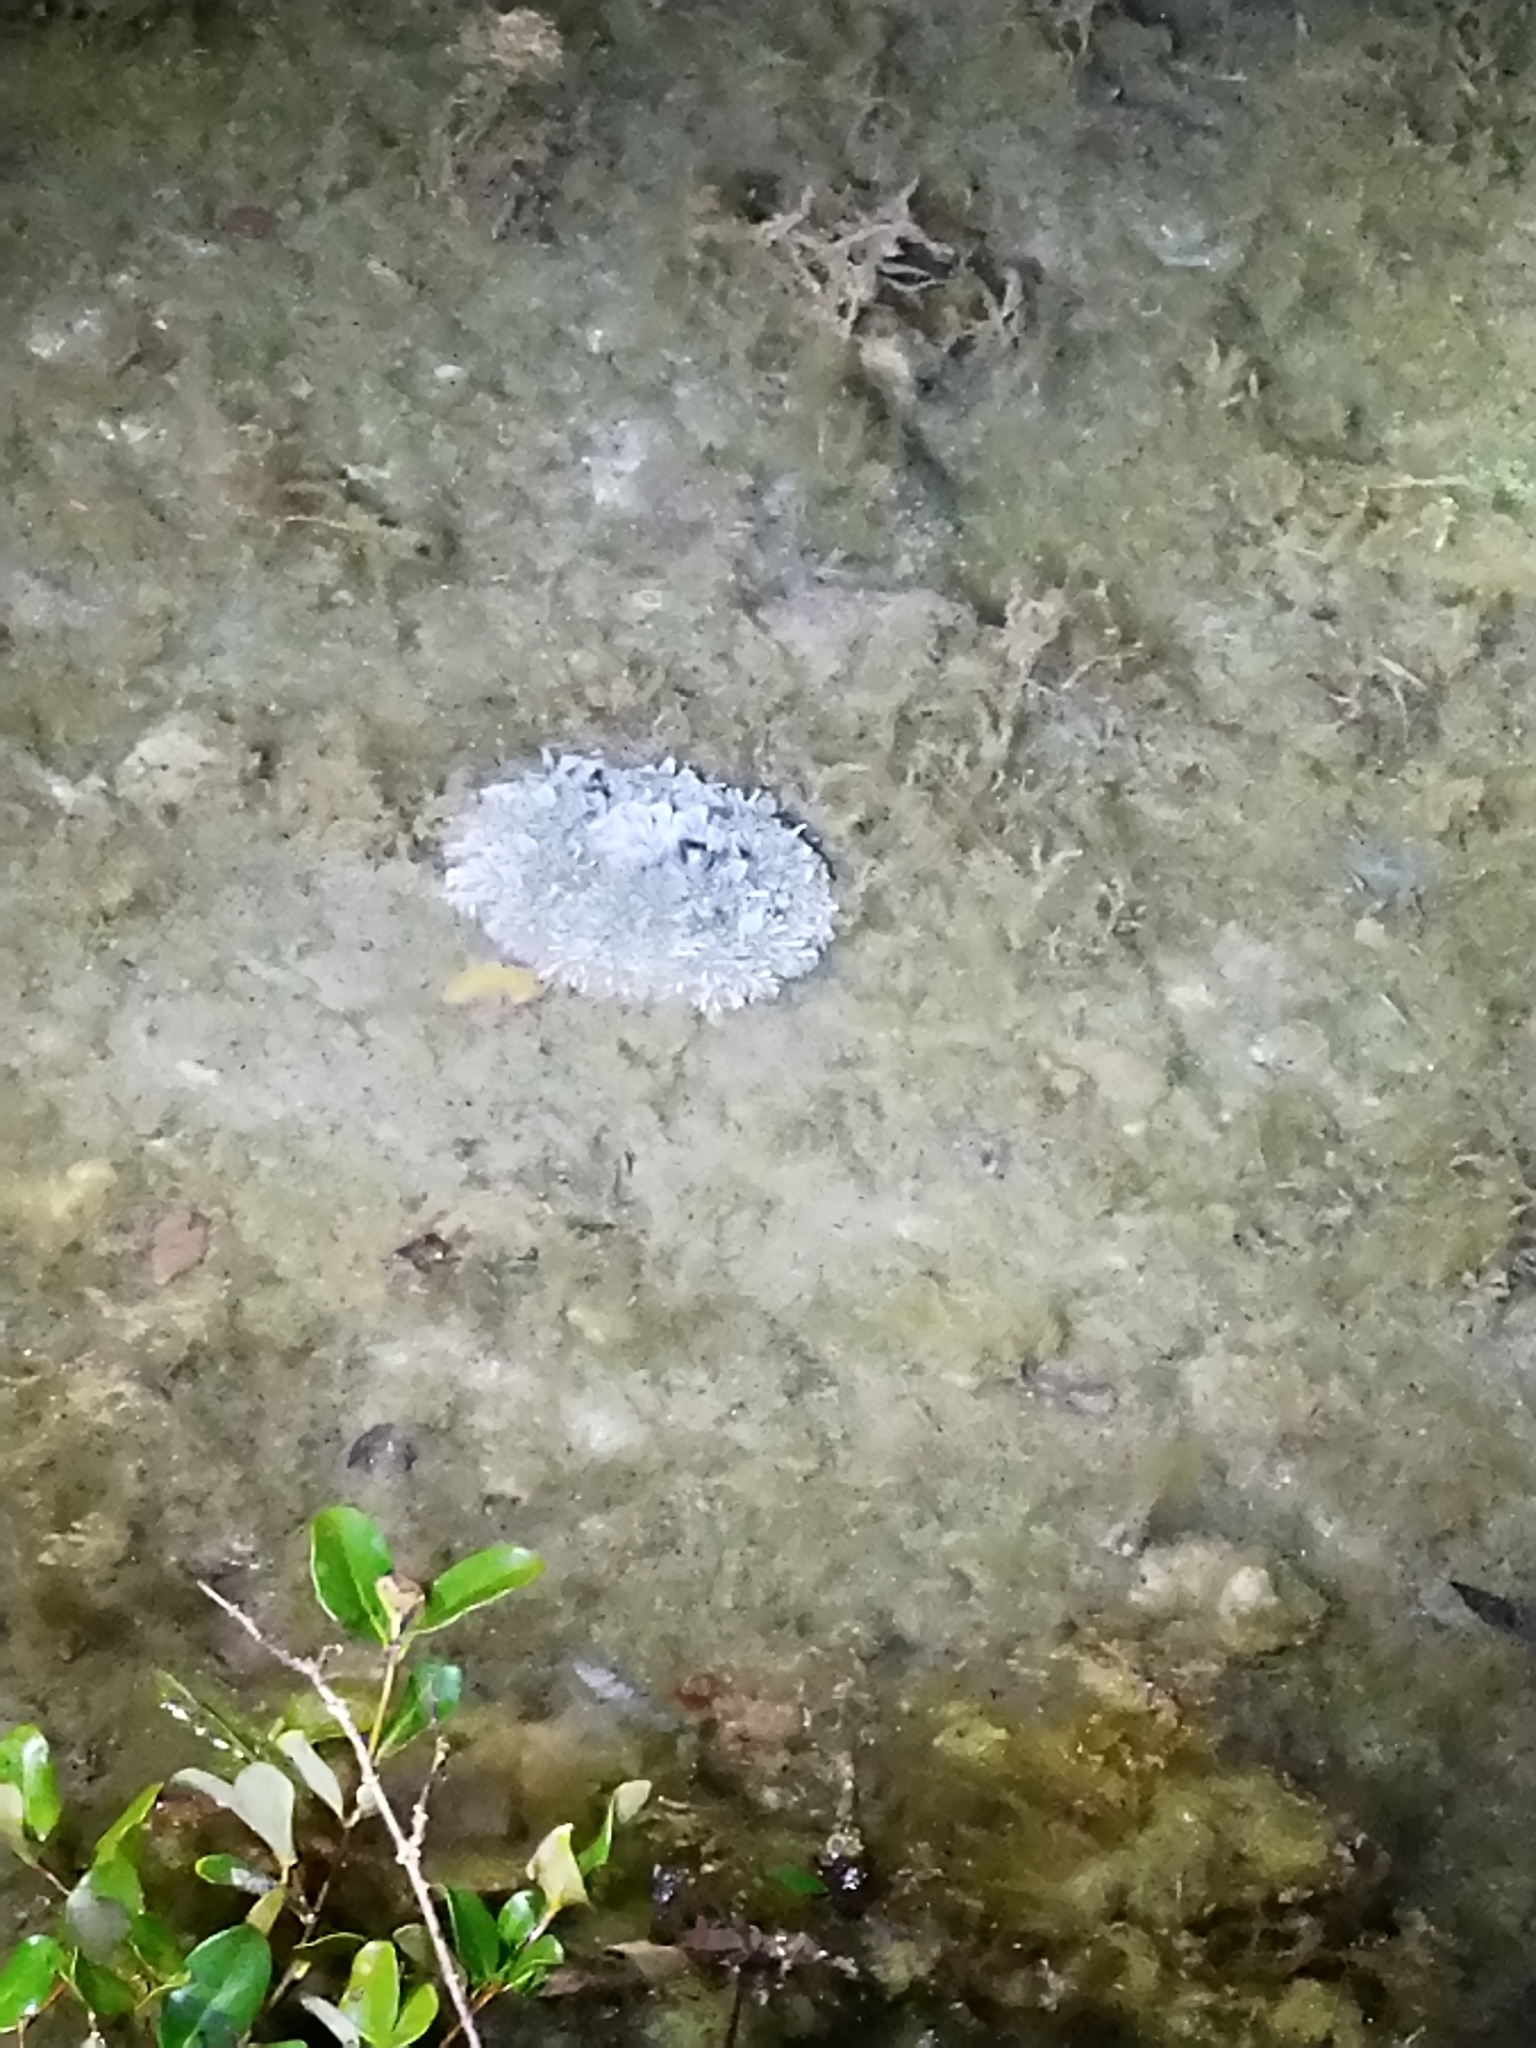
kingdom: Animalia
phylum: Cnidaria
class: Scyphozoa
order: Rhizostomeae
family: Cassiopeidae
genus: Cassiopea
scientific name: Cassiopea andromeda
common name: Upside-down jellyfish
